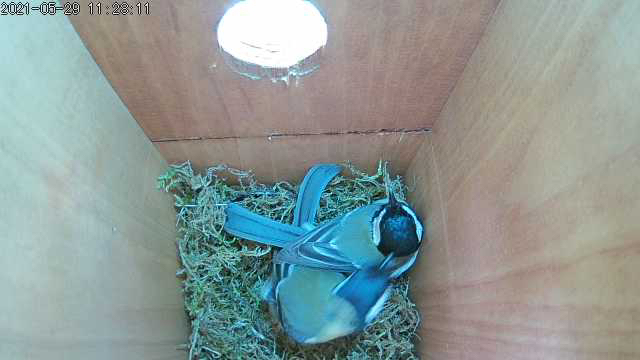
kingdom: Animalia
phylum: Chordata
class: Aves
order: Passeriformes
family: Paridae
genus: Parus
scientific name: Parus major
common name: Great tit
